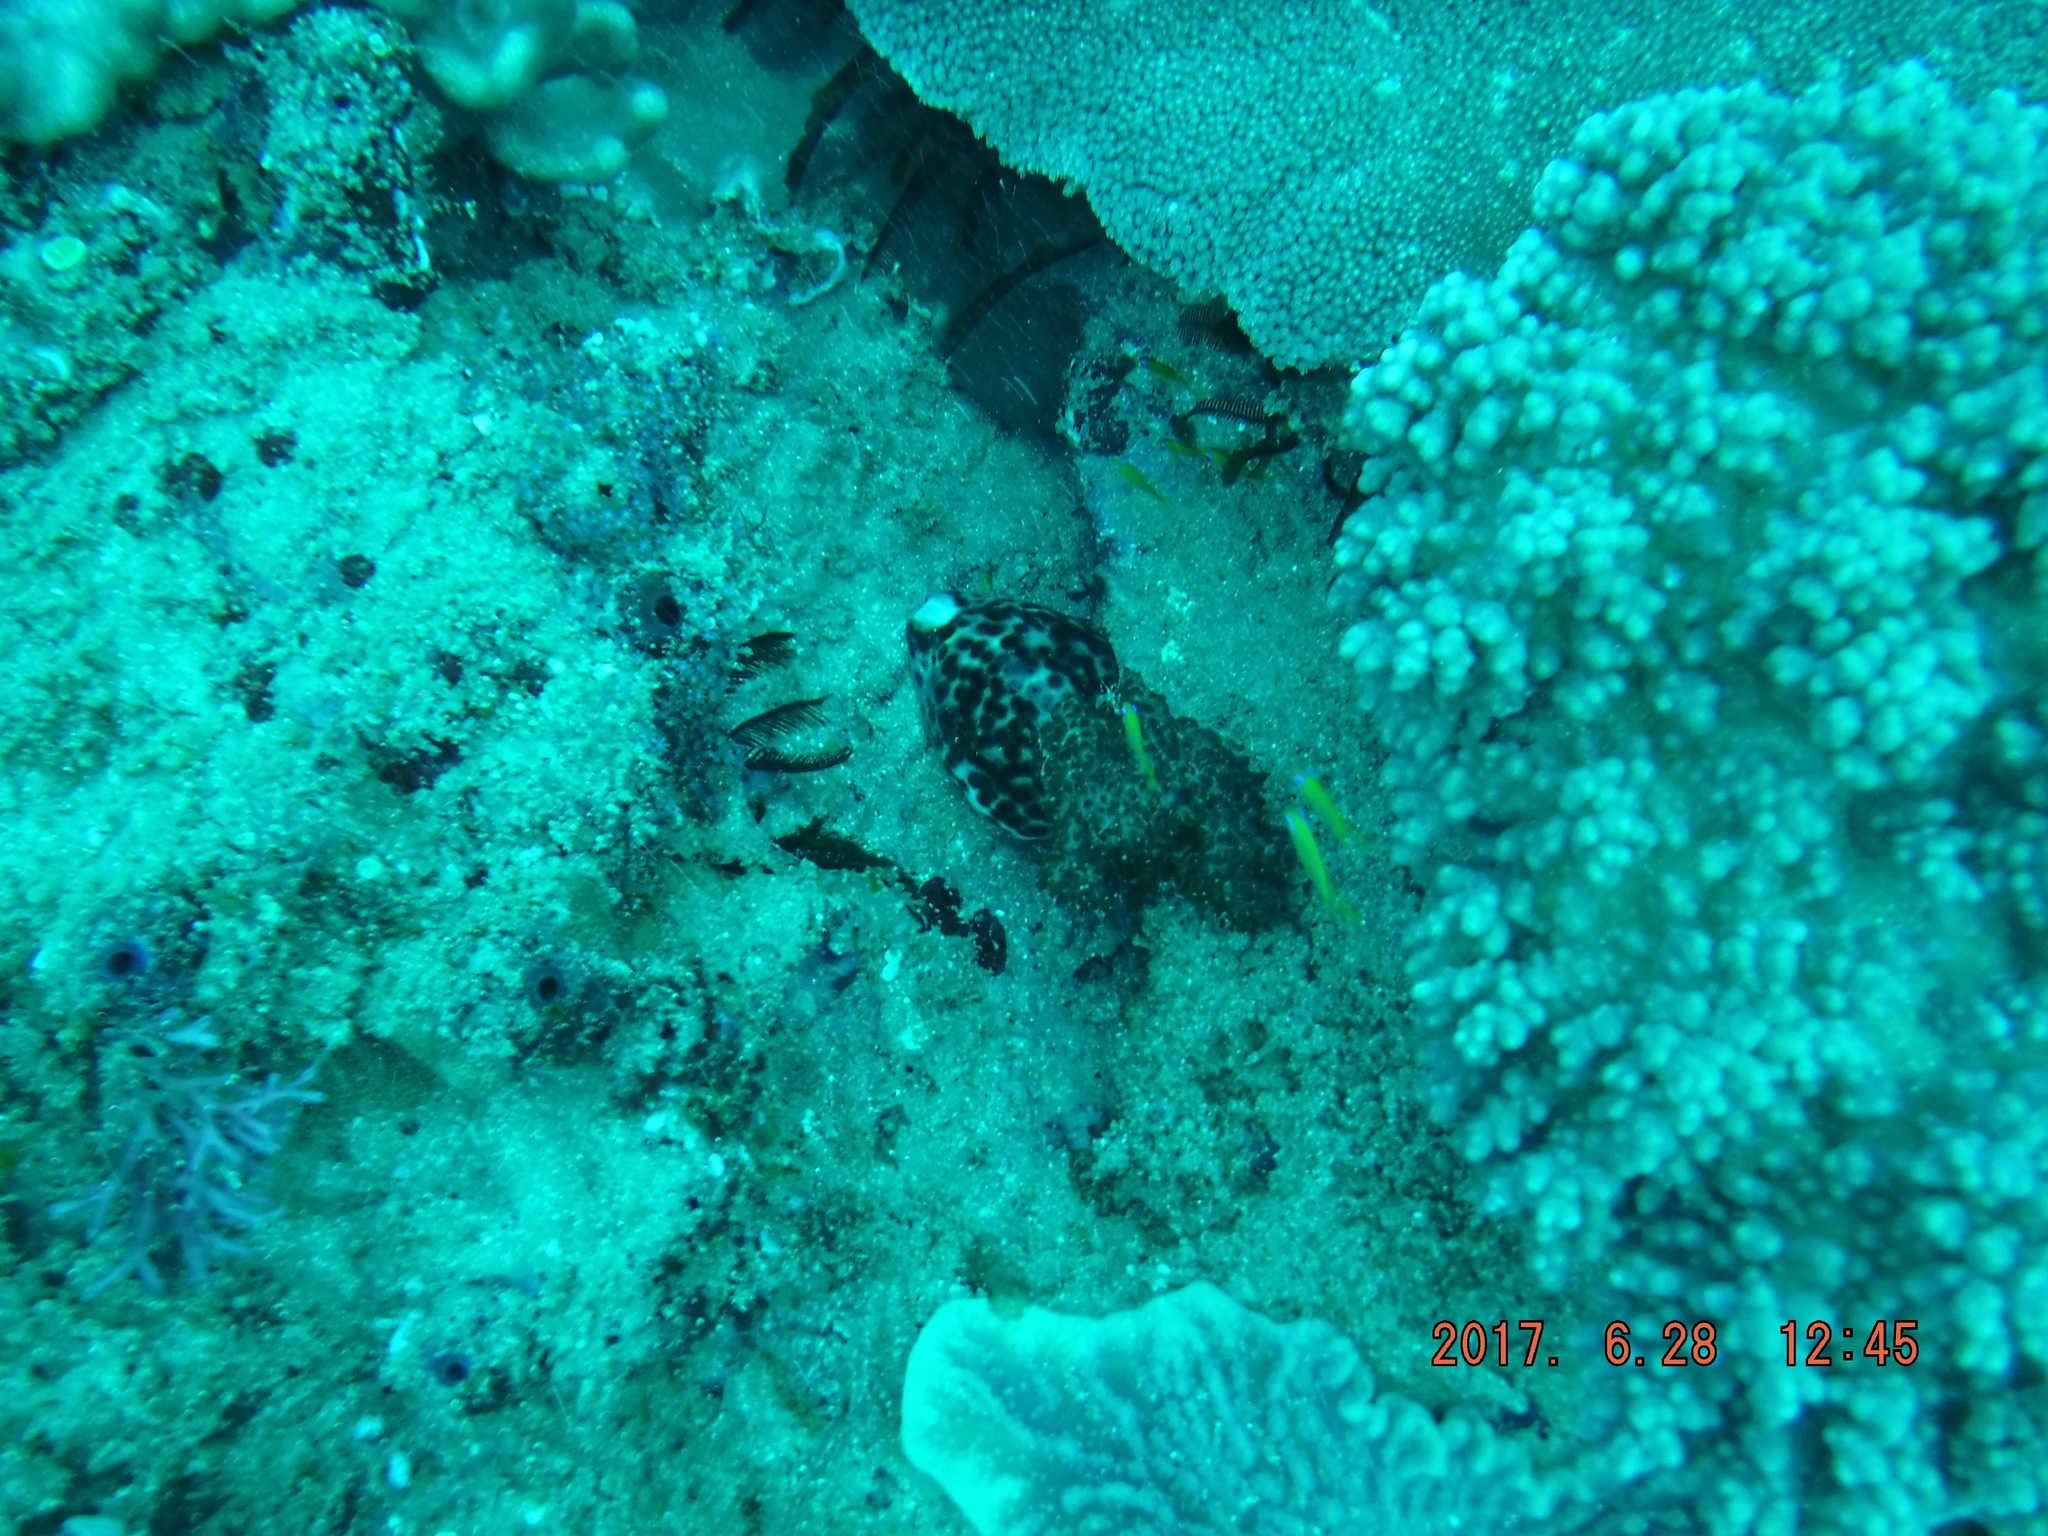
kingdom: Animalia
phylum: Mollusca
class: Gastropoda
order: Littorinimorpha
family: Cypraeidae
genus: Cypraea
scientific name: Cypraea tigris
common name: Tiger cowrie
